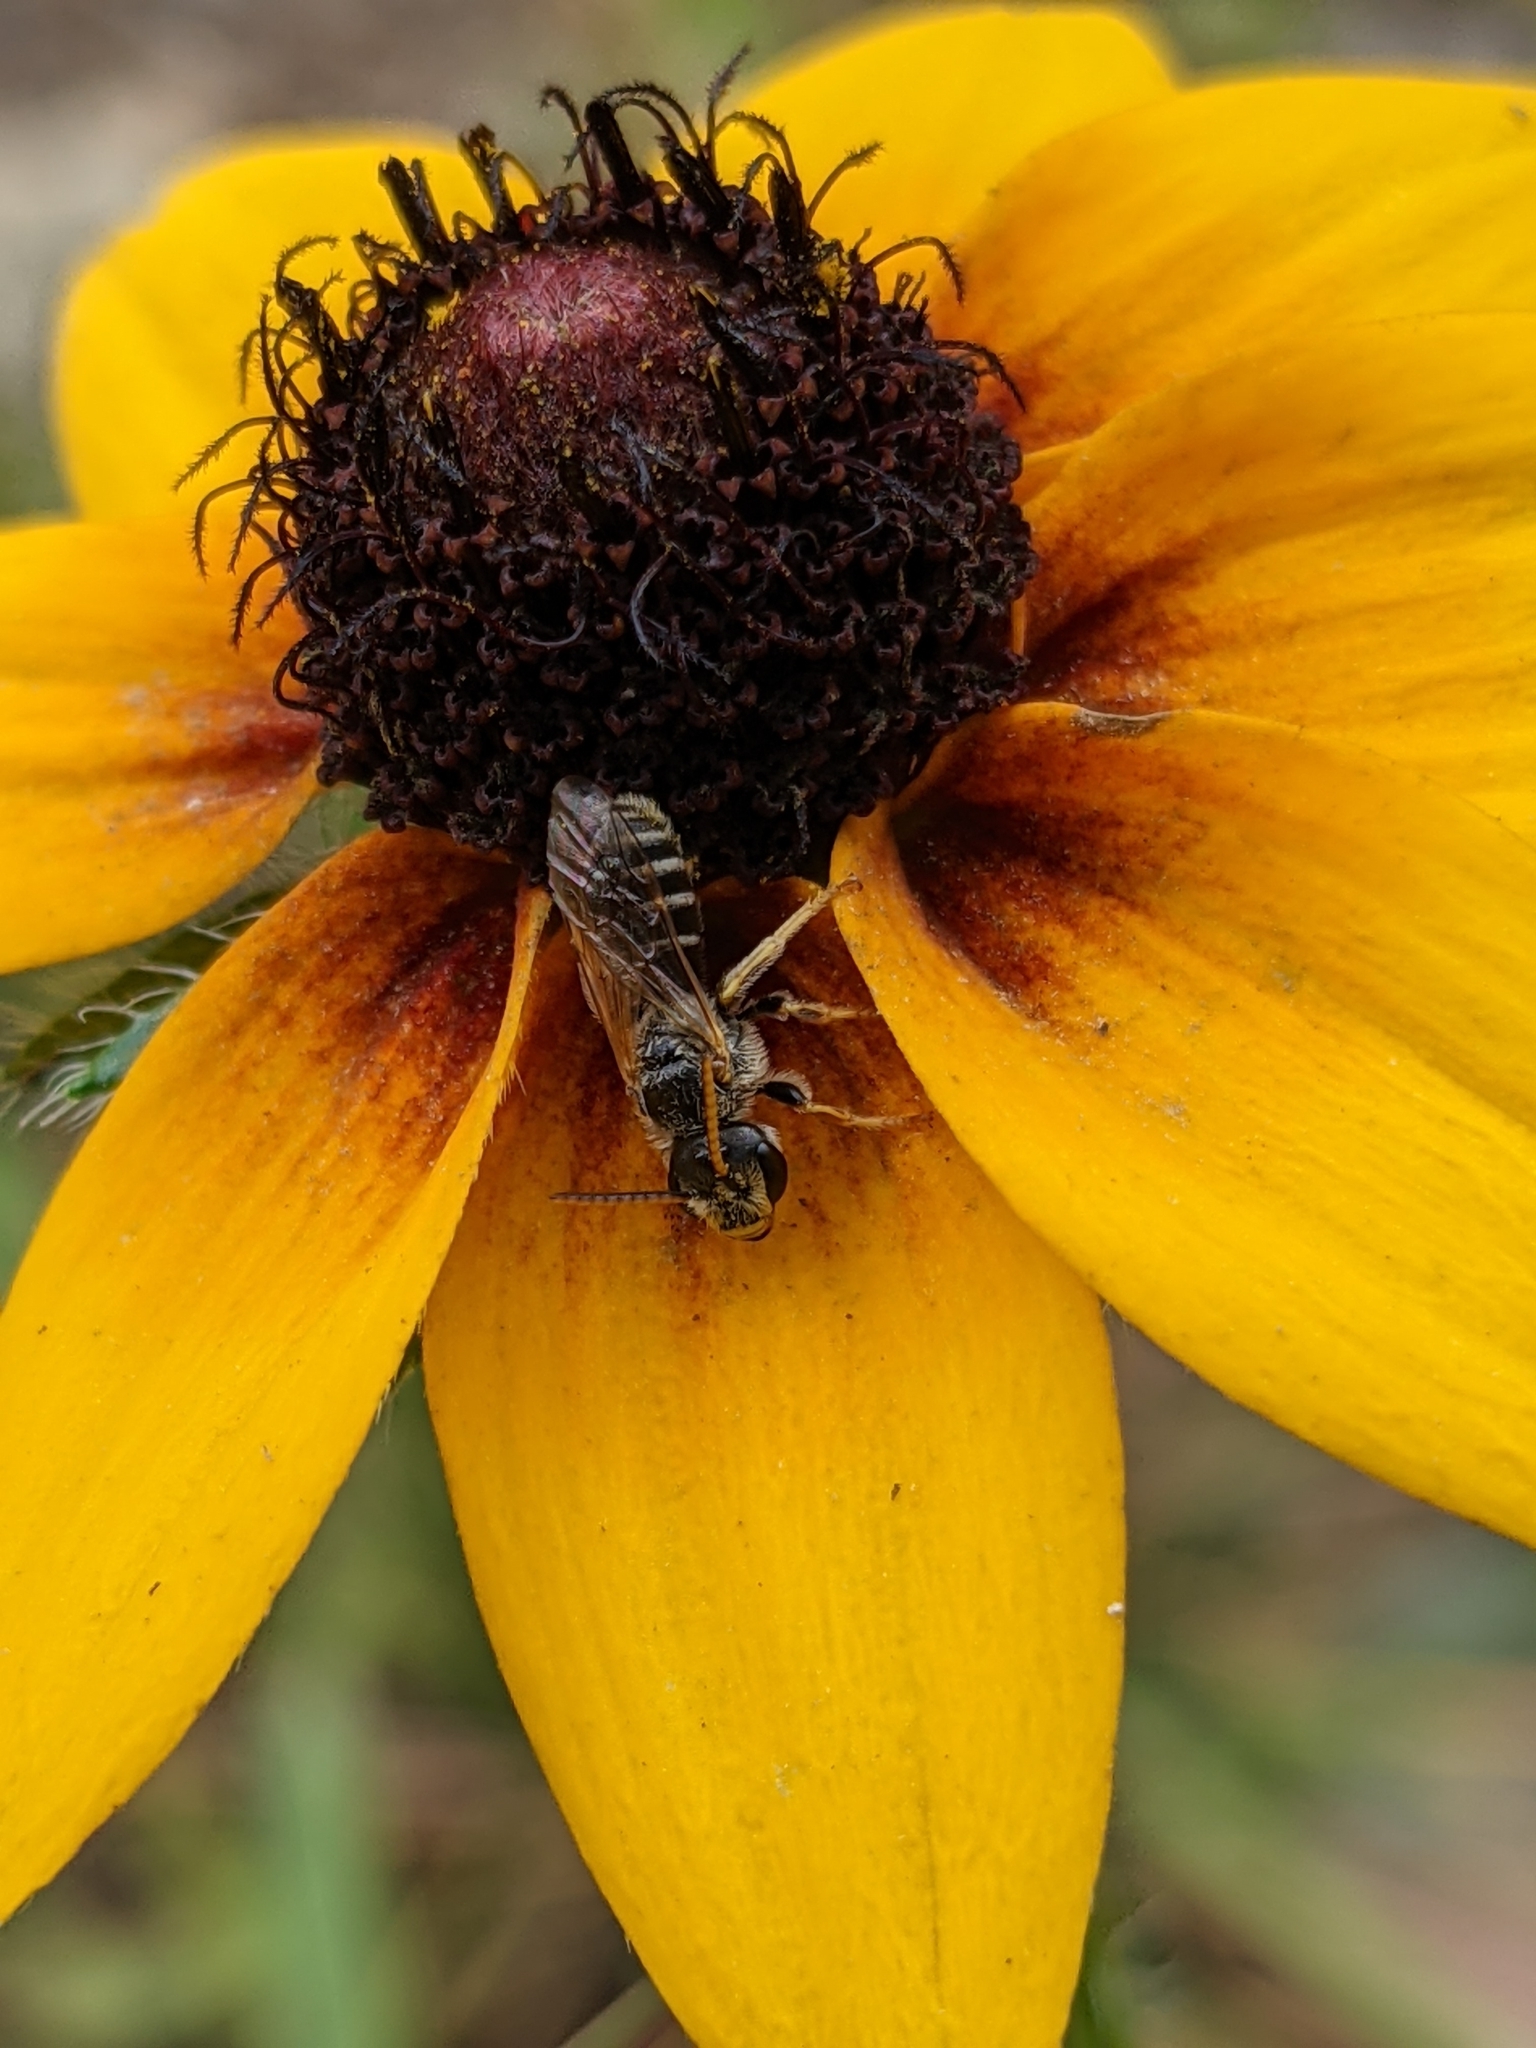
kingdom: Animalia
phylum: Arthropoda
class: Insecta
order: Hymenoptera
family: Halictidae
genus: Halictus
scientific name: Halictus ligatus
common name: Ligated furrow bee
